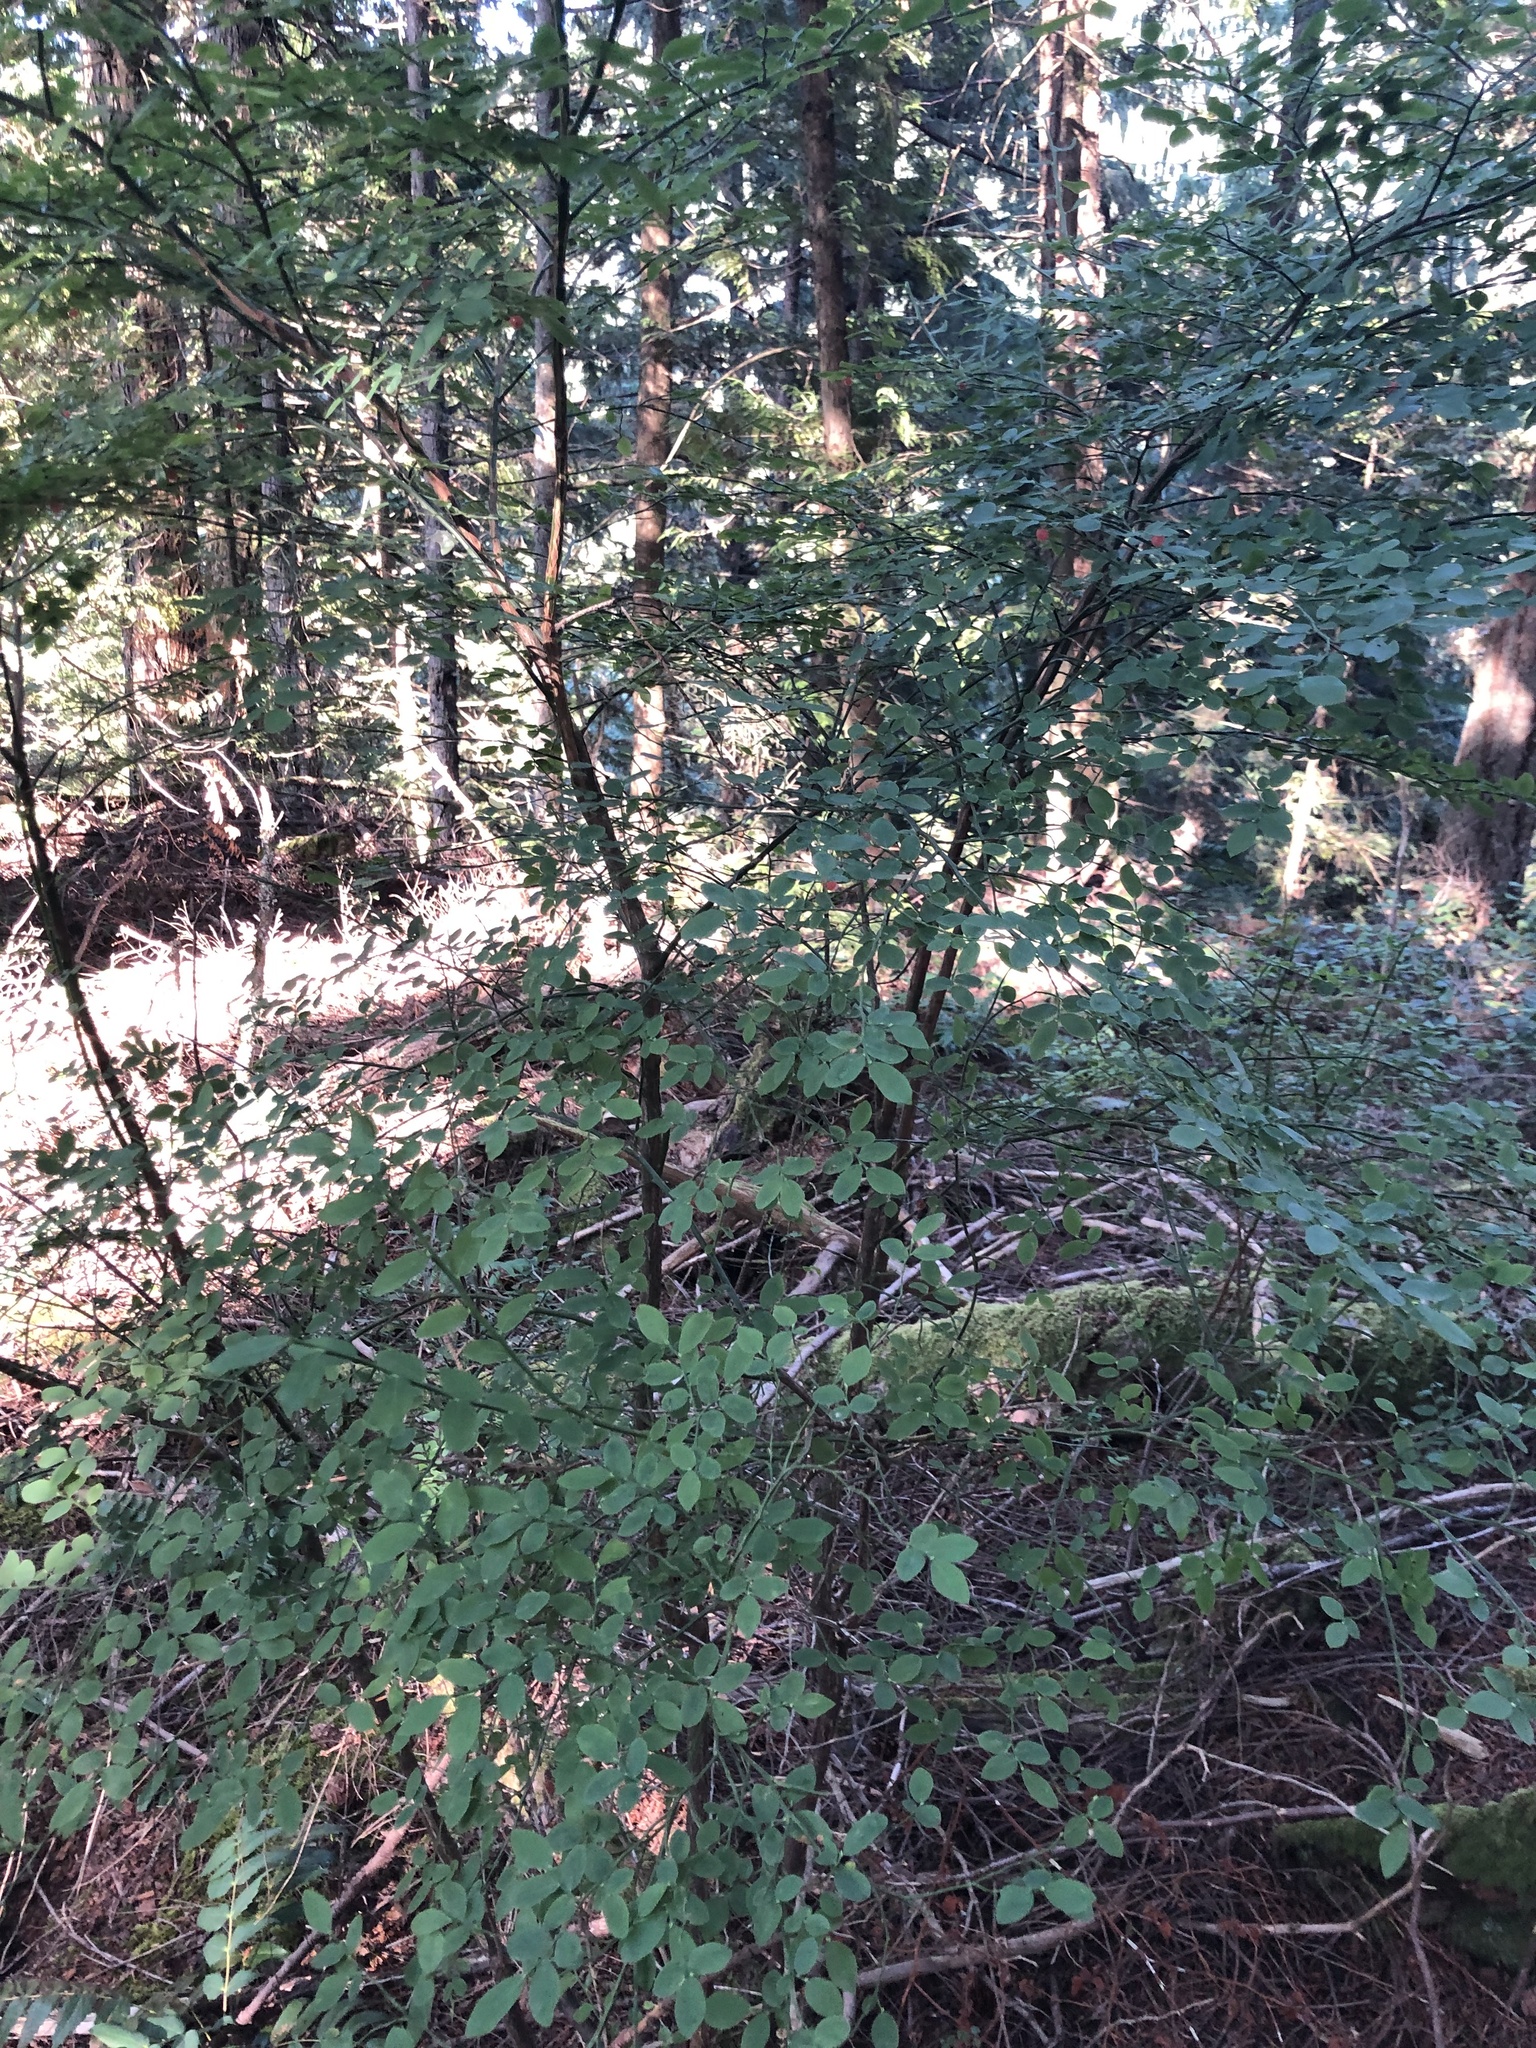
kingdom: Plantae
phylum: Tracheophyta
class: Magnoliopsida
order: Ericales
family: Ericaceae
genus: Vaccinium
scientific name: Vaccinium parvifolium
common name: Red-huckleberry
